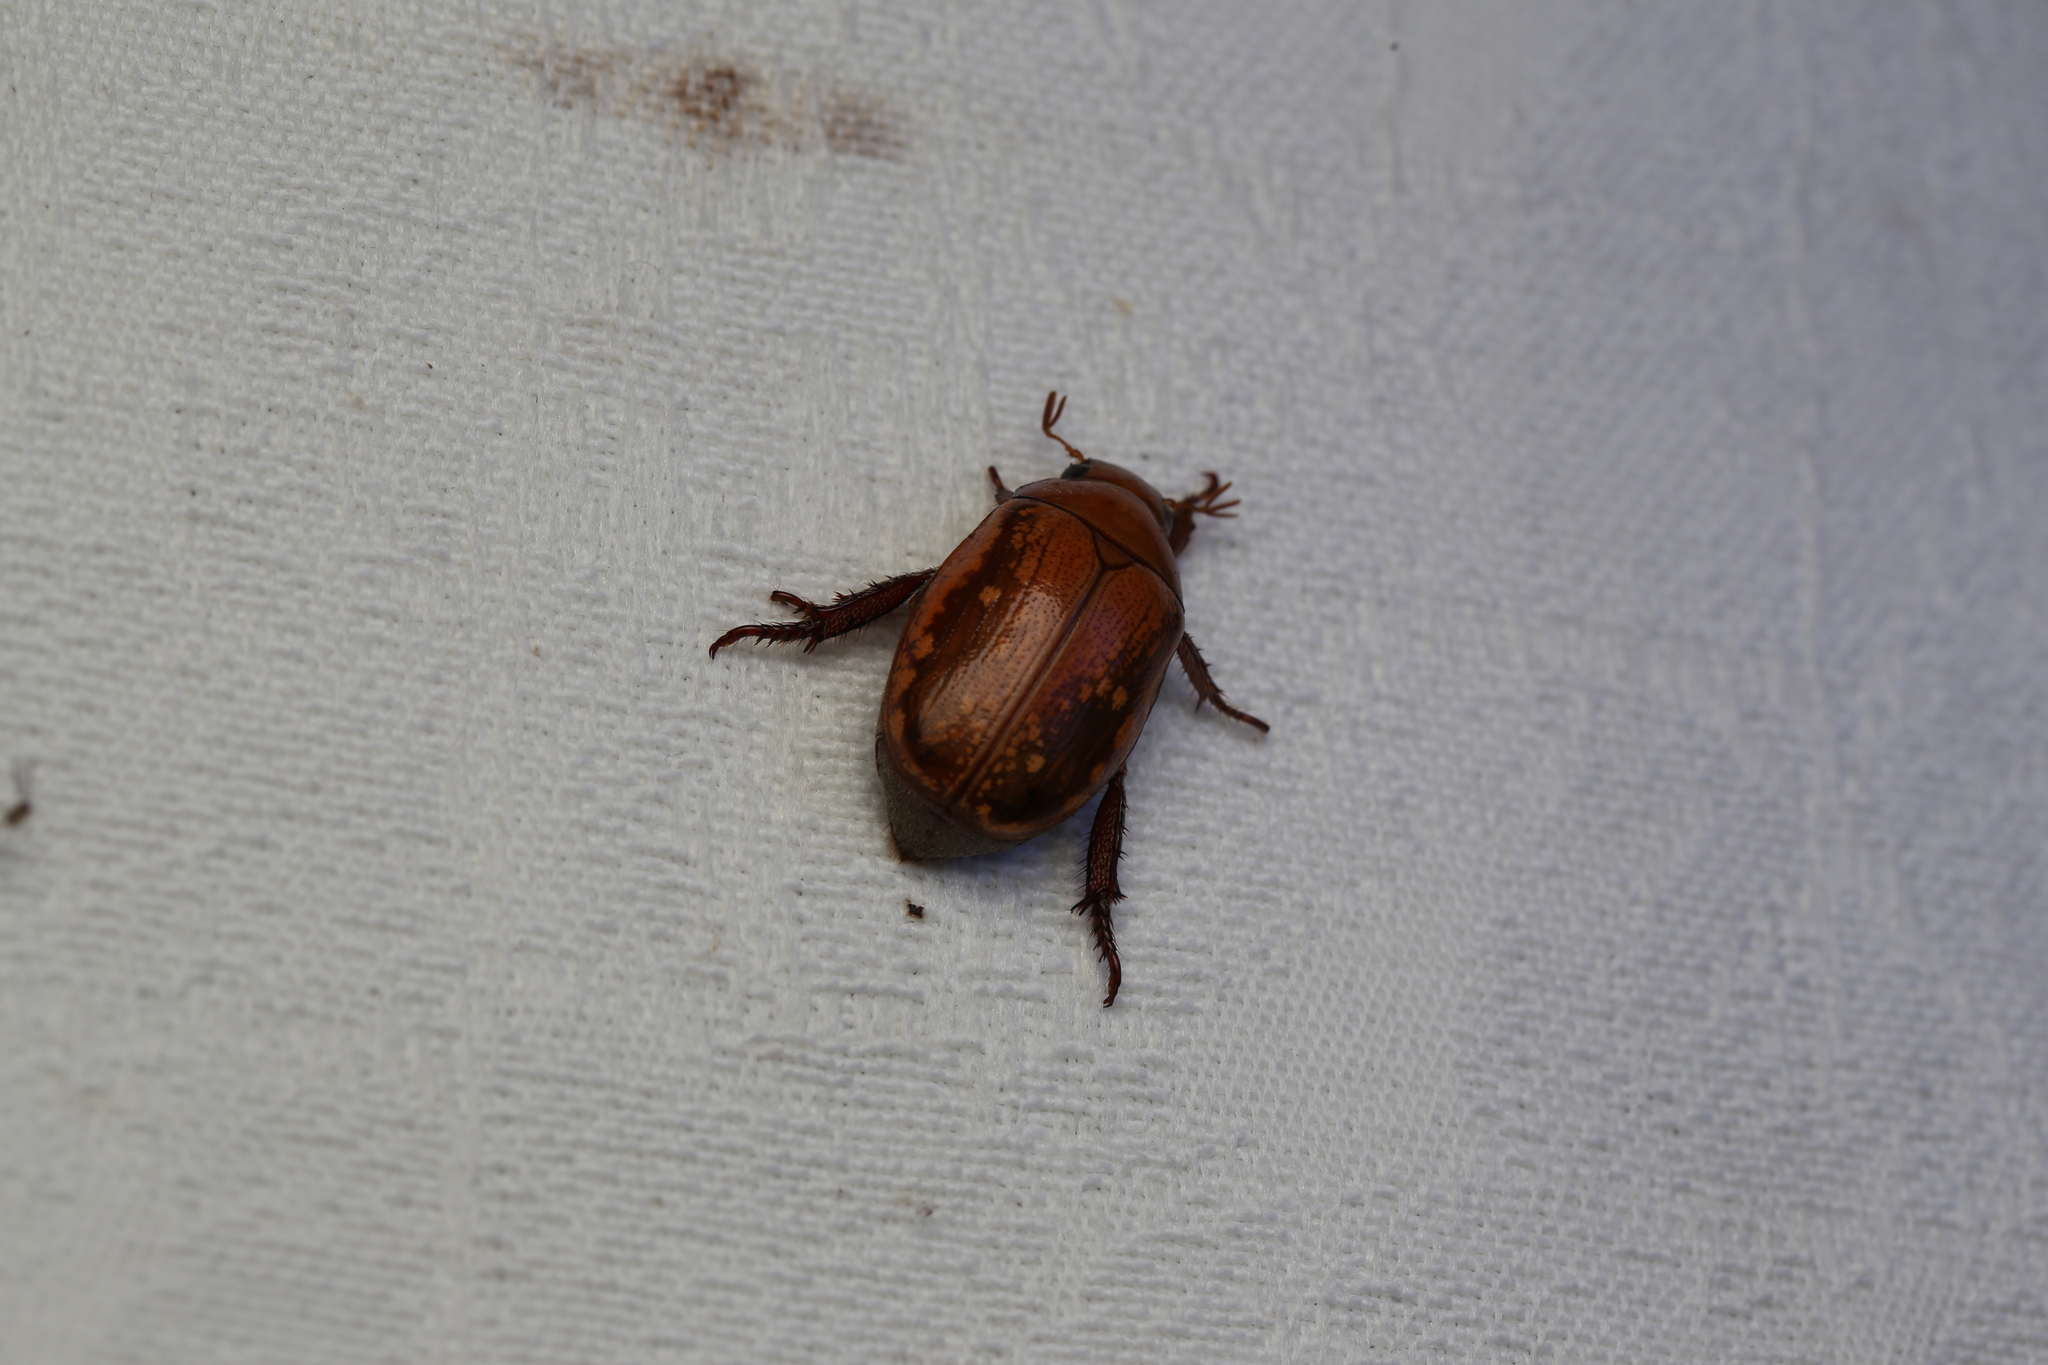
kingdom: Animalia
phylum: Arthropoda
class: Insecta
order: Coleoptera
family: Scarabaeidae
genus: Anoplognathus
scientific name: Anoplognathus concolor
